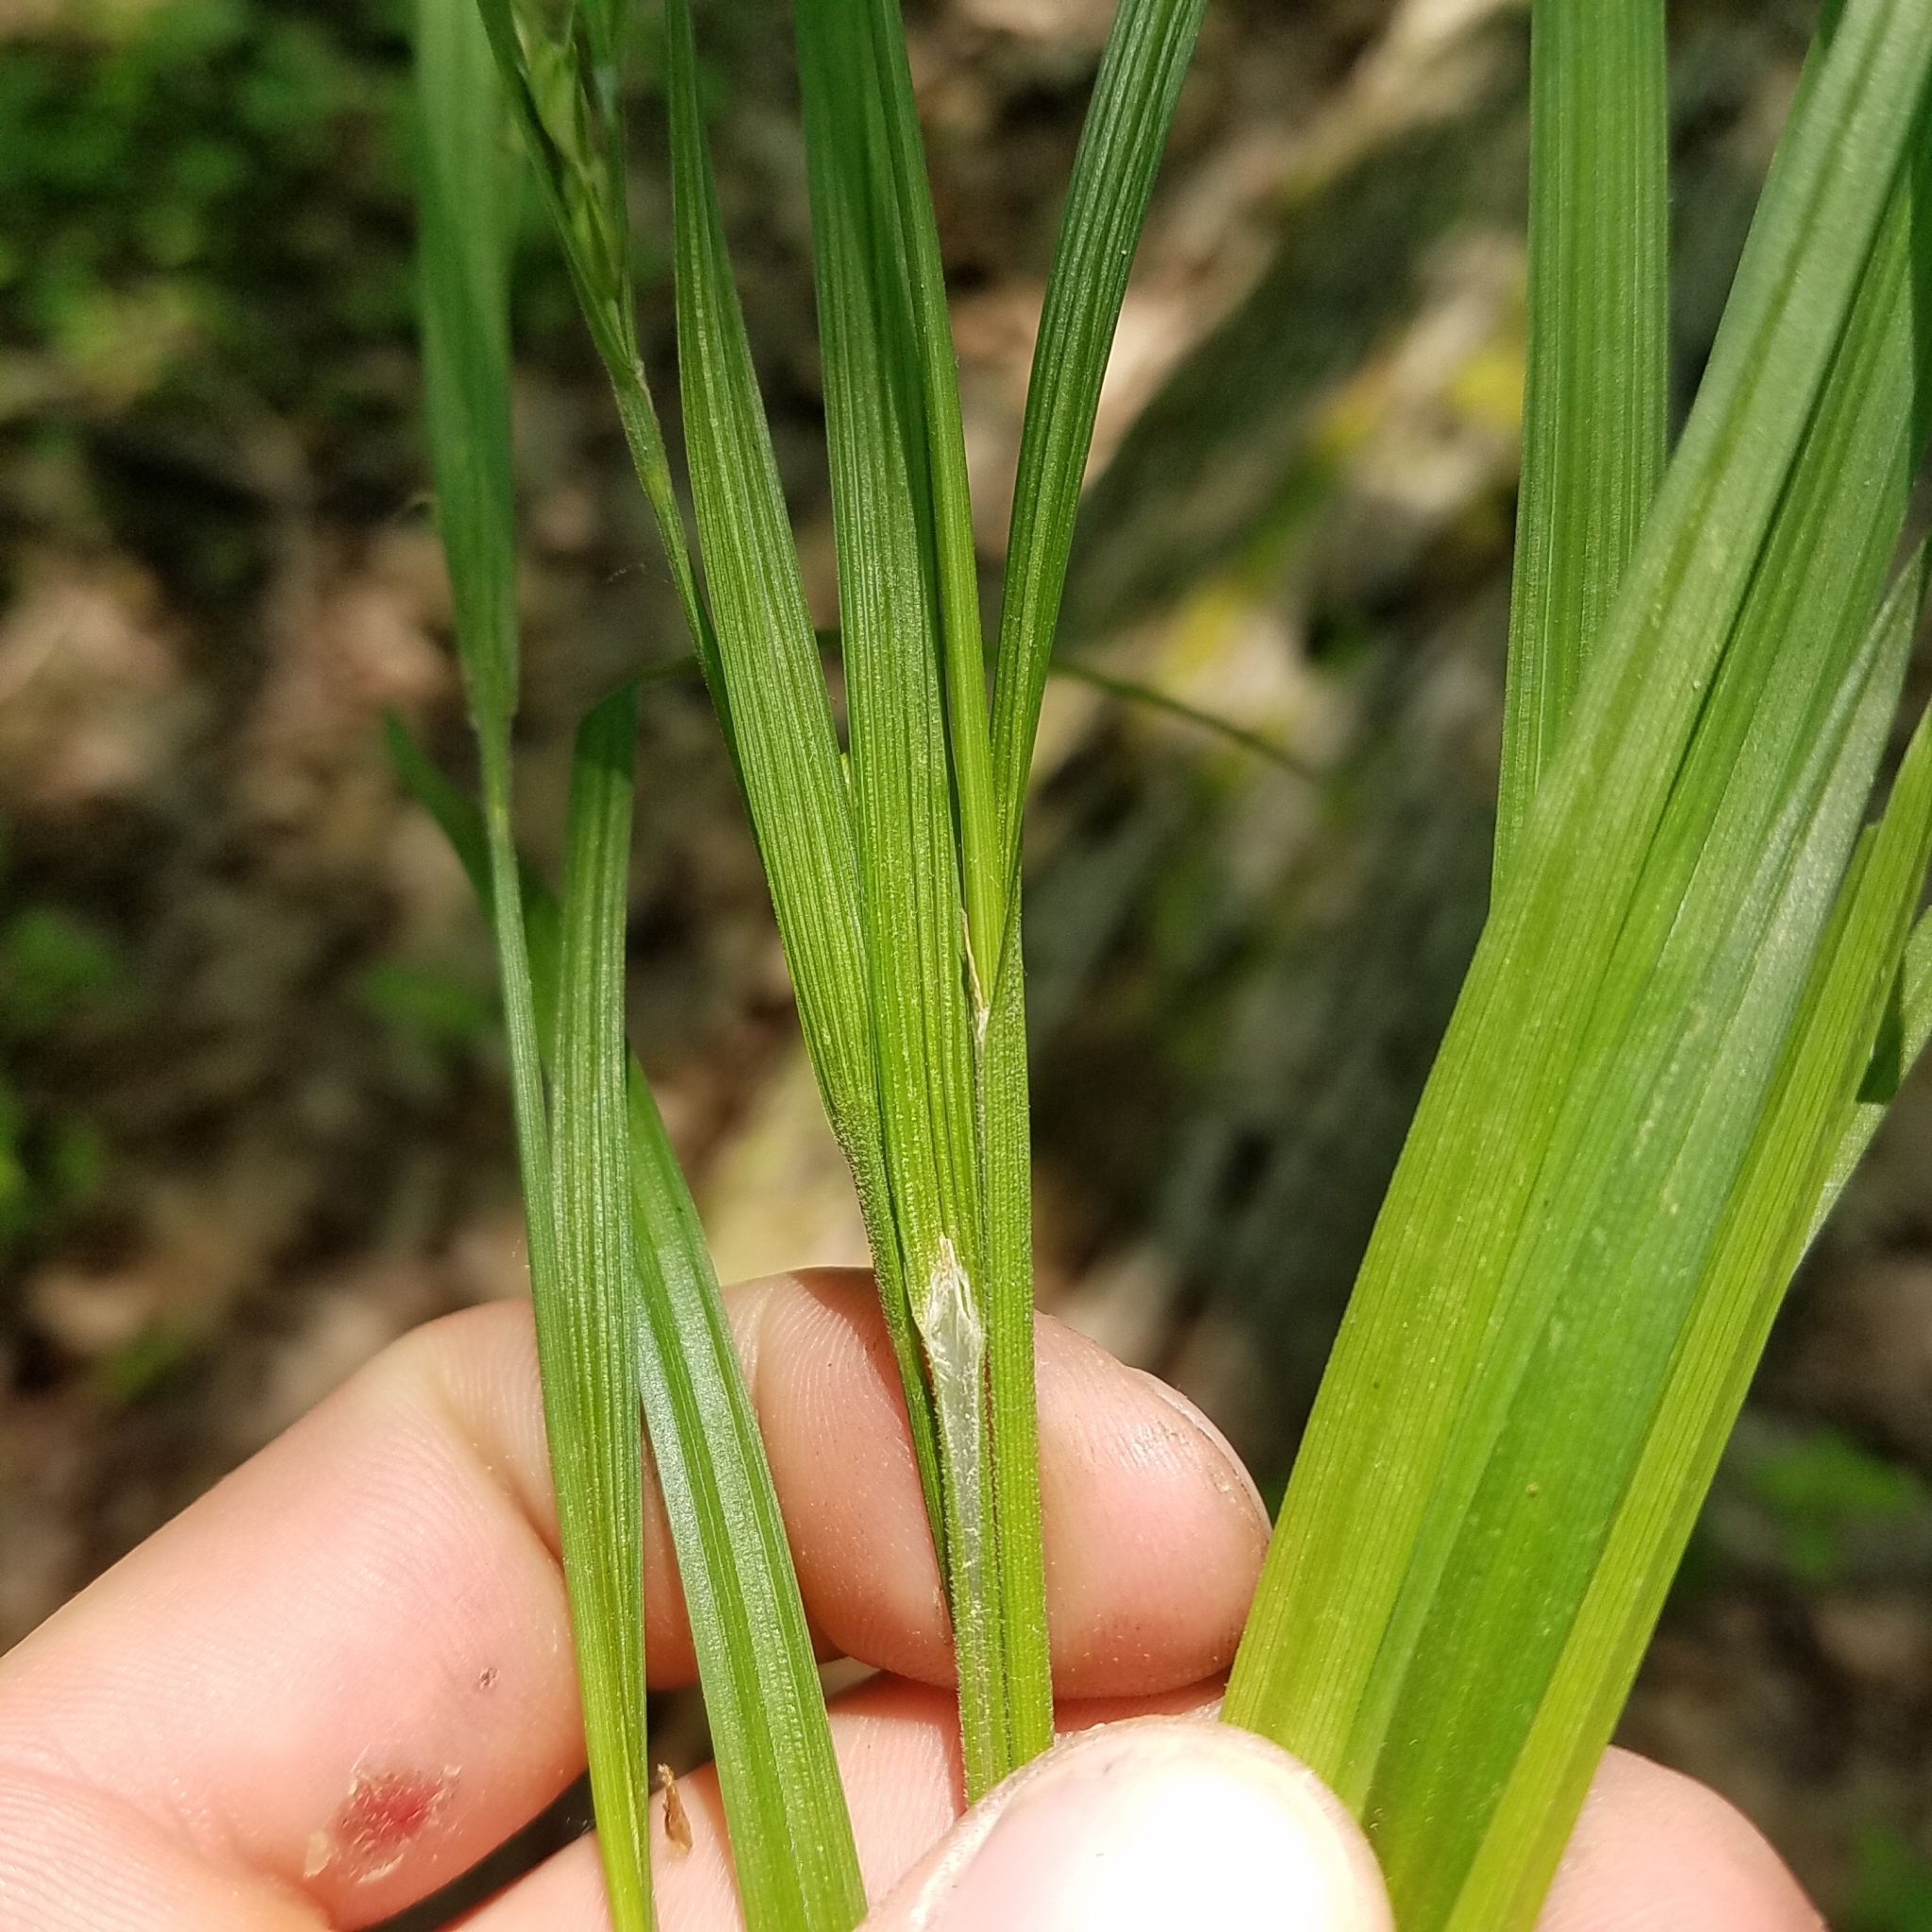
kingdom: Plantae
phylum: Tracheophyta
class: Liliopsida
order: Poales
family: Cyperaceae
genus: Carex
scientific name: Carex hitchcockiana
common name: Hairy grey sedge
